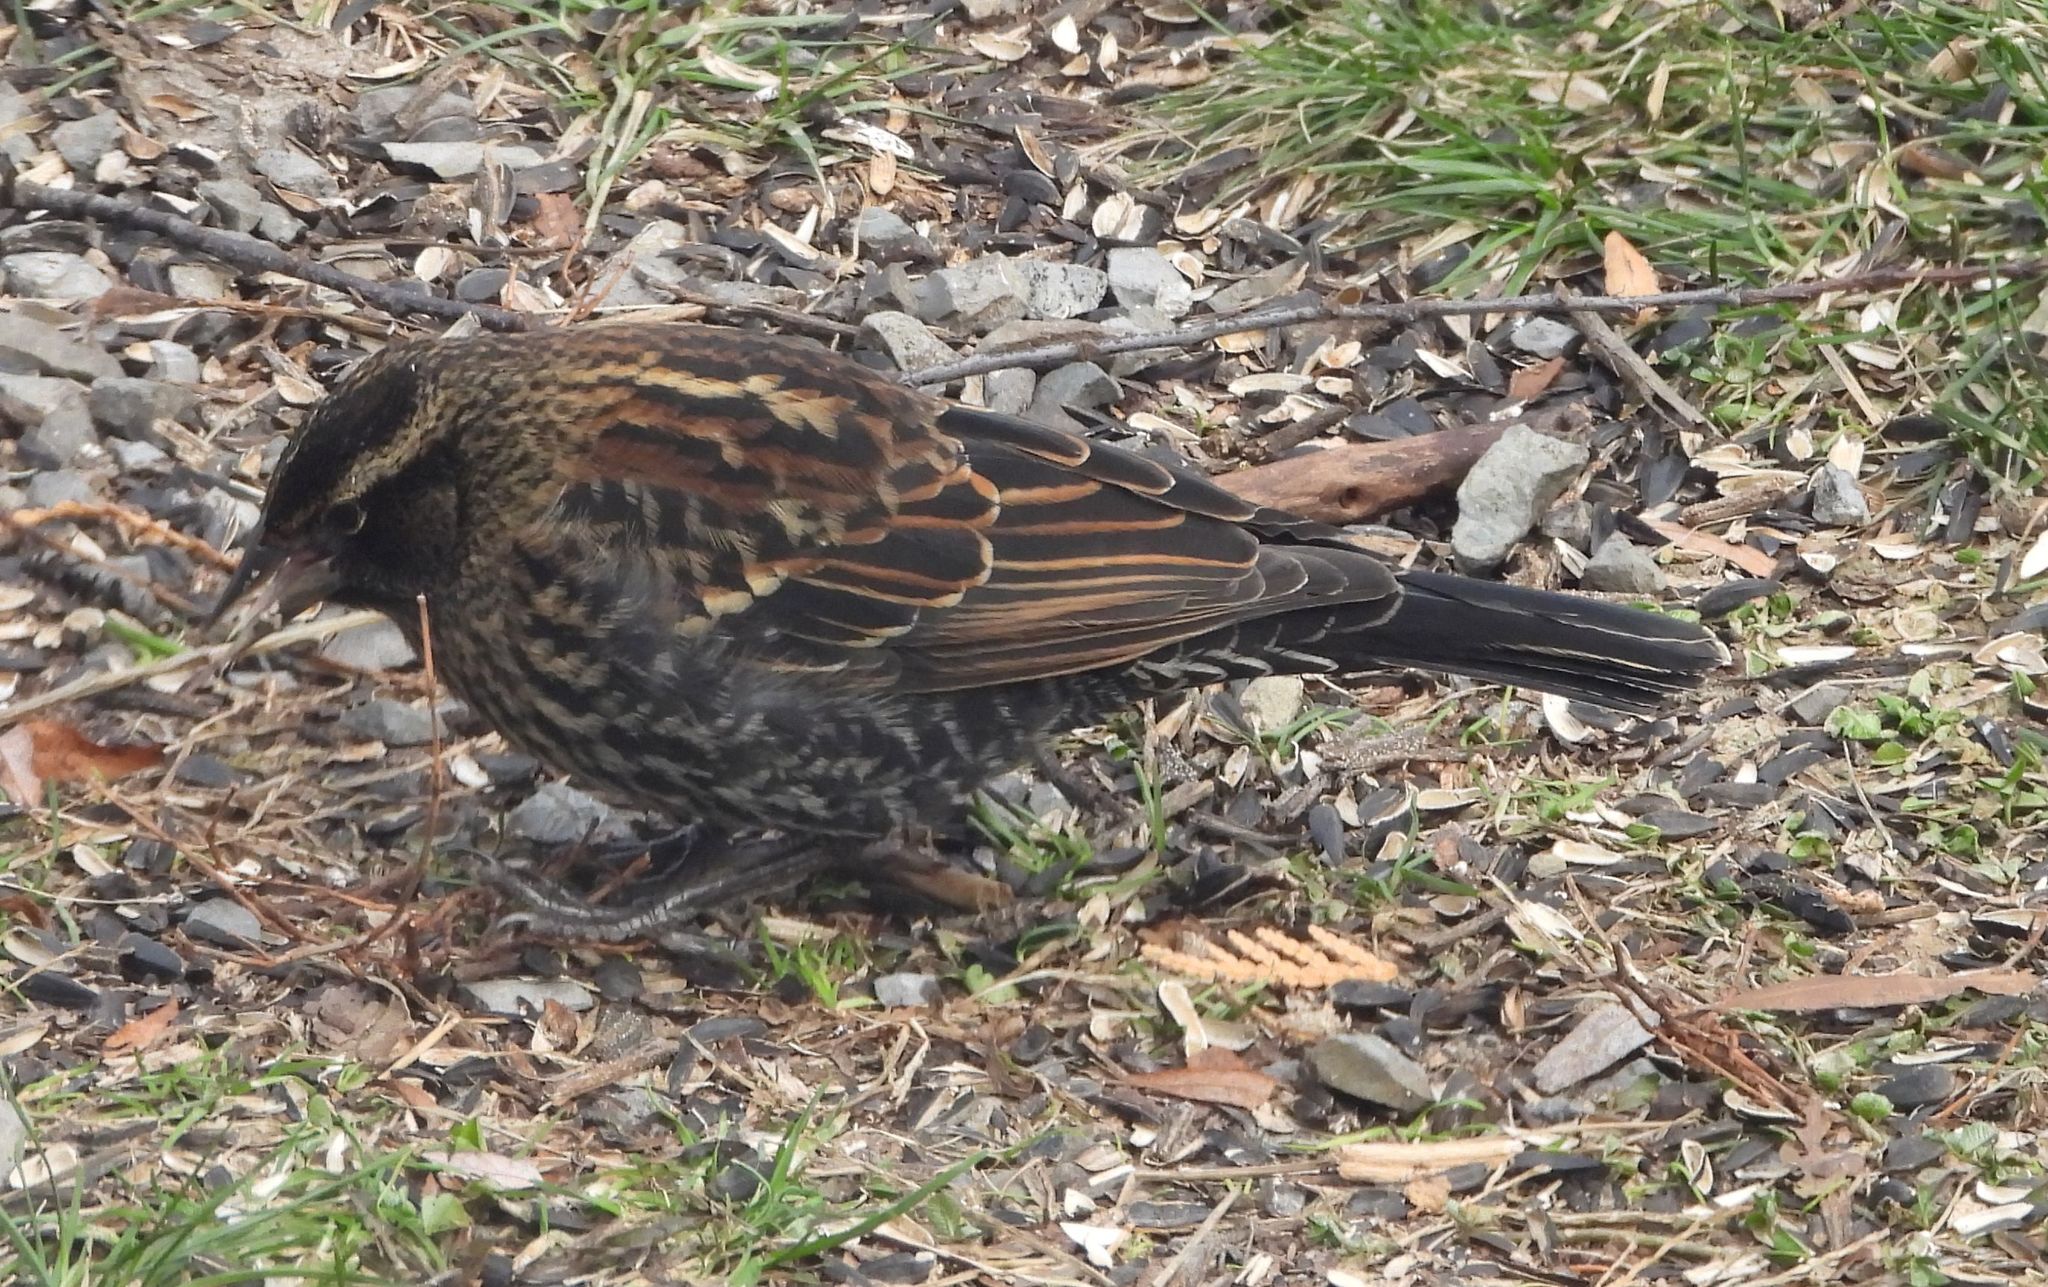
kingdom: Animalia
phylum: Chordata
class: Aves
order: Passeriformes
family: Icteridae
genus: Agelaius
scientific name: Agelaius phoeniceus
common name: Red-winged blackbird
